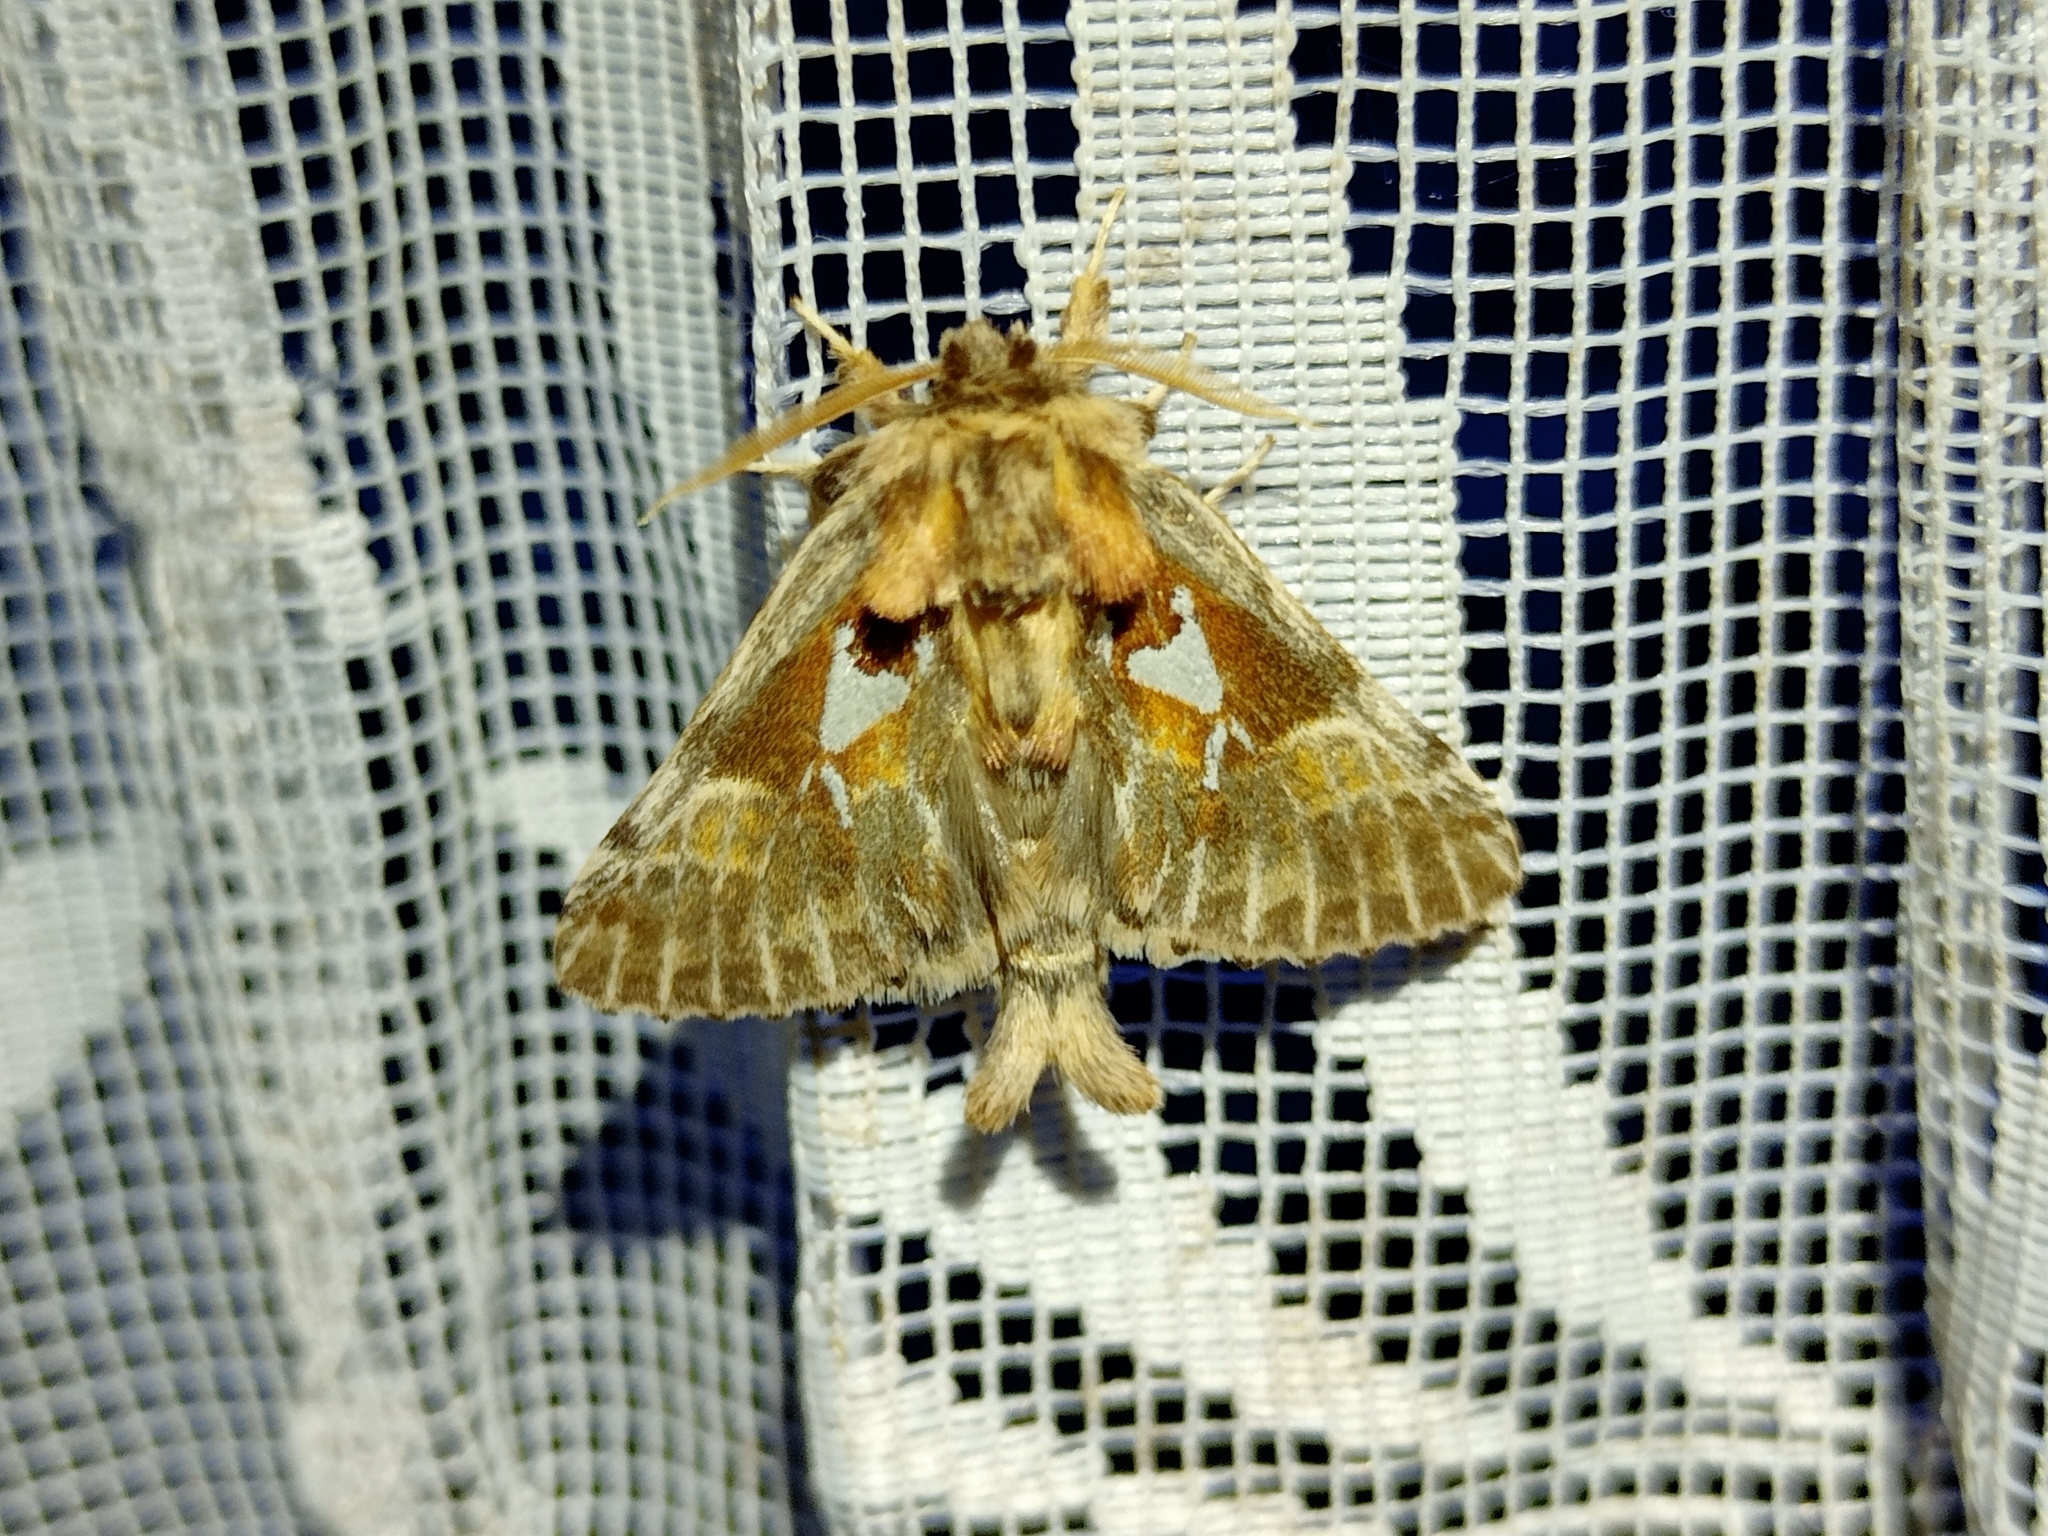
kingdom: Animalia
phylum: Arthropoda
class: Insecta
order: Lepidoptera
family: Notodontidae
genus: Spatalia
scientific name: Spatalia argentina
